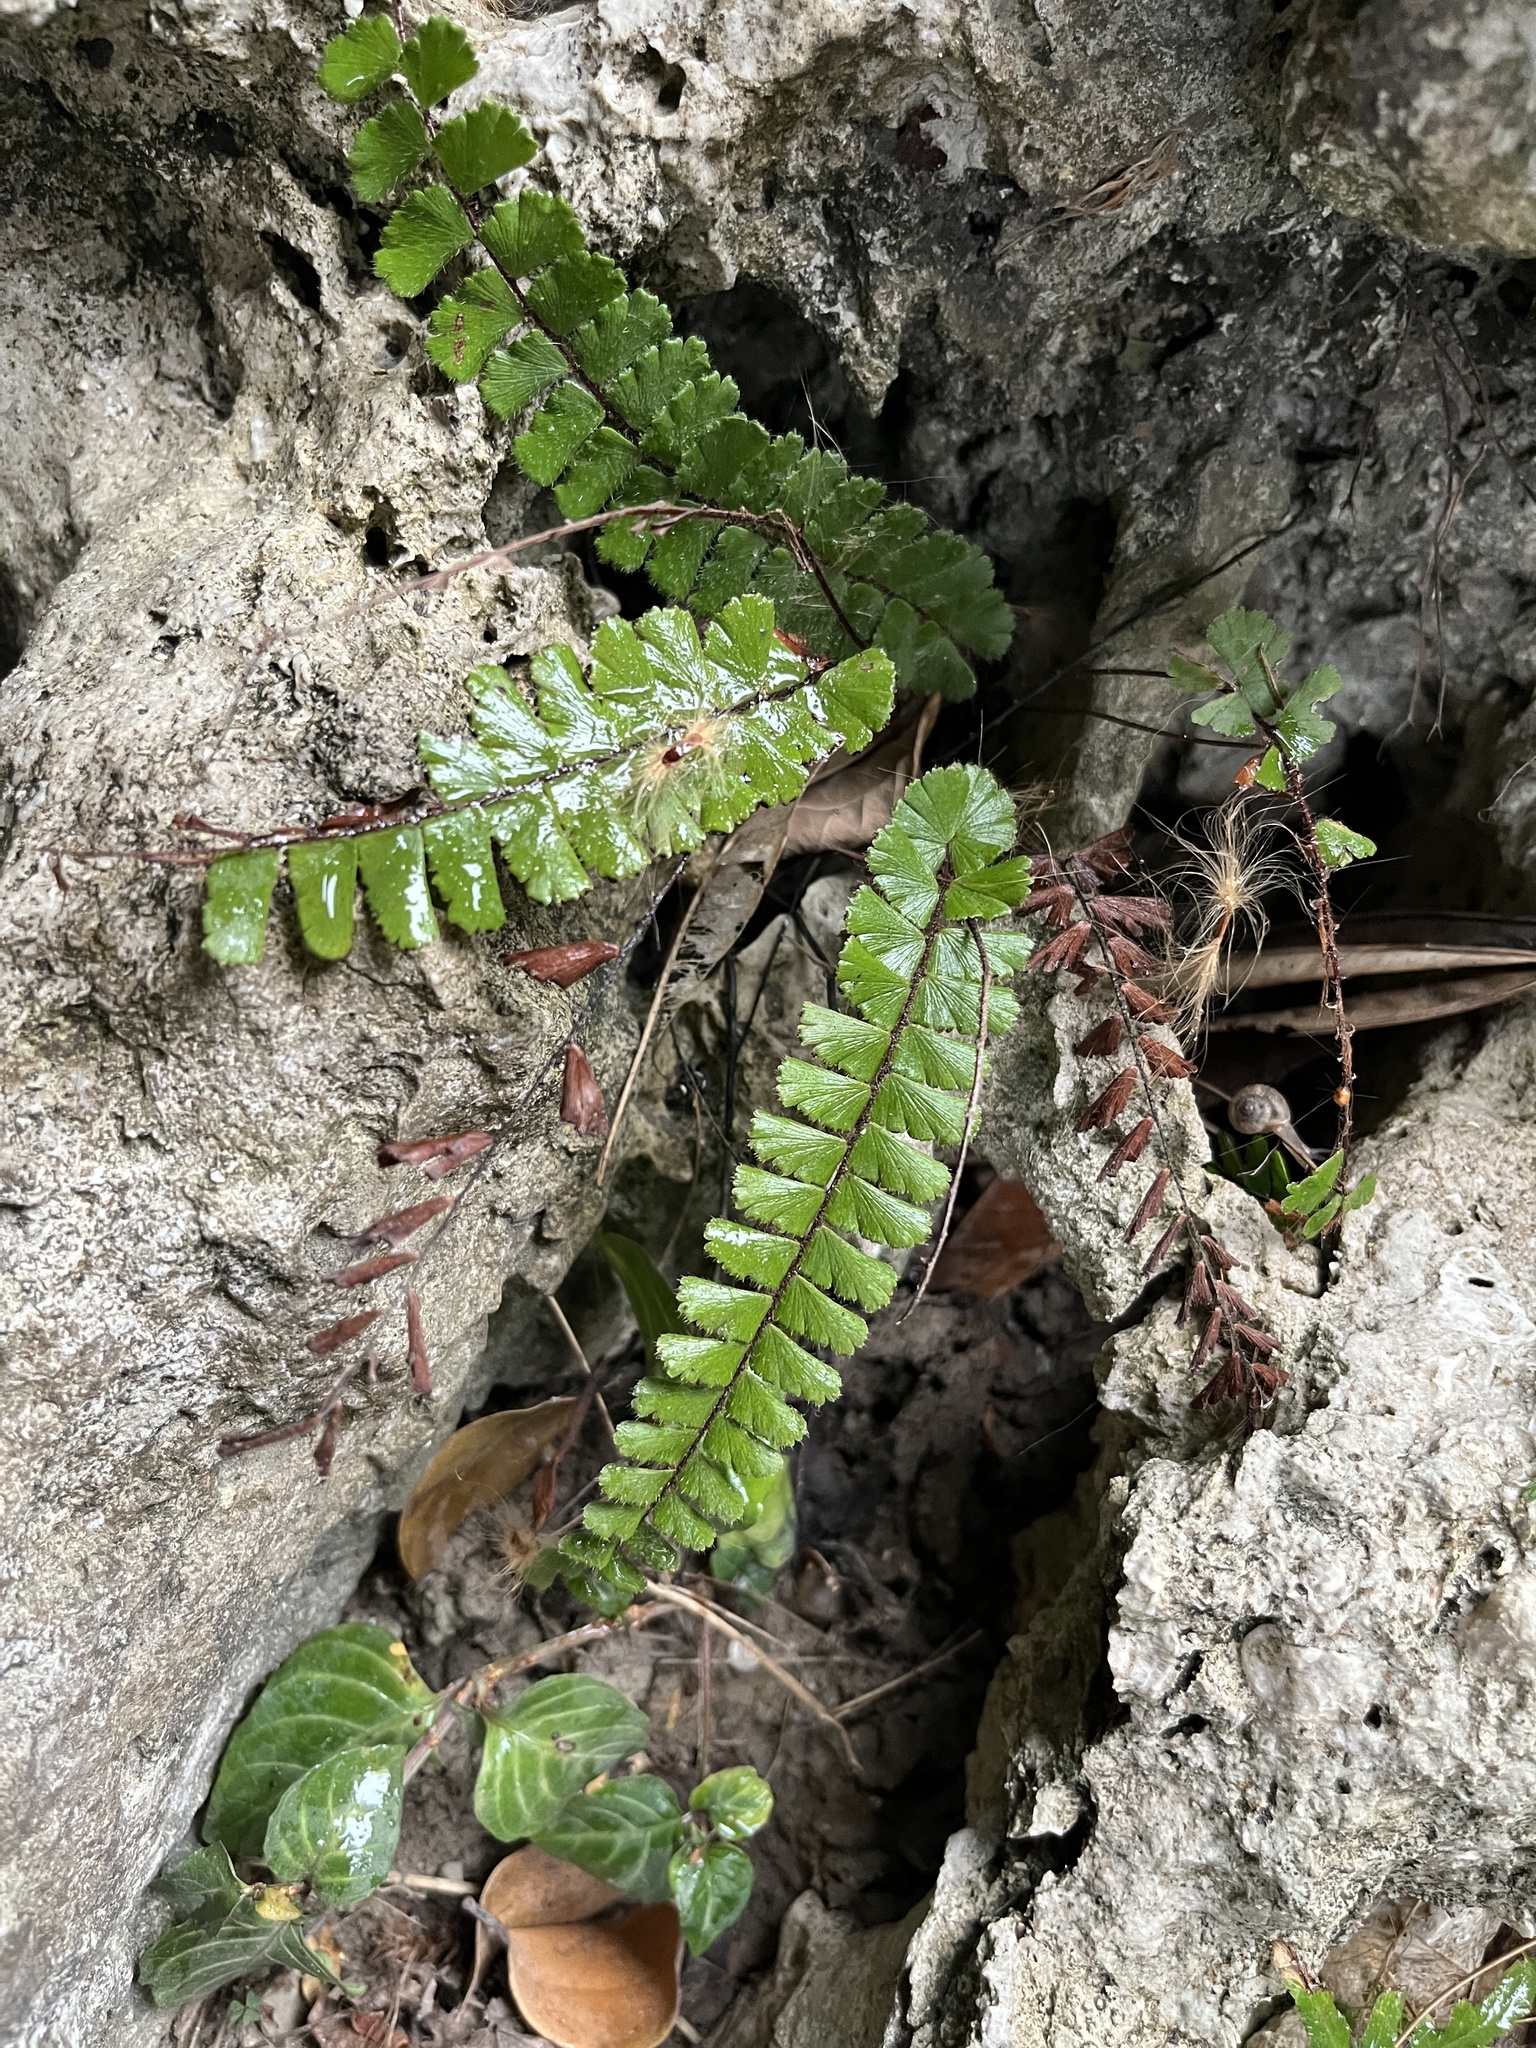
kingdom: Plantae
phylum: Tracheophyta
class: Polypodiopsida
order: Polypodiales
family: Pteridaceae
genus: Adiantum
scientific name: Adiantum ciliatum
